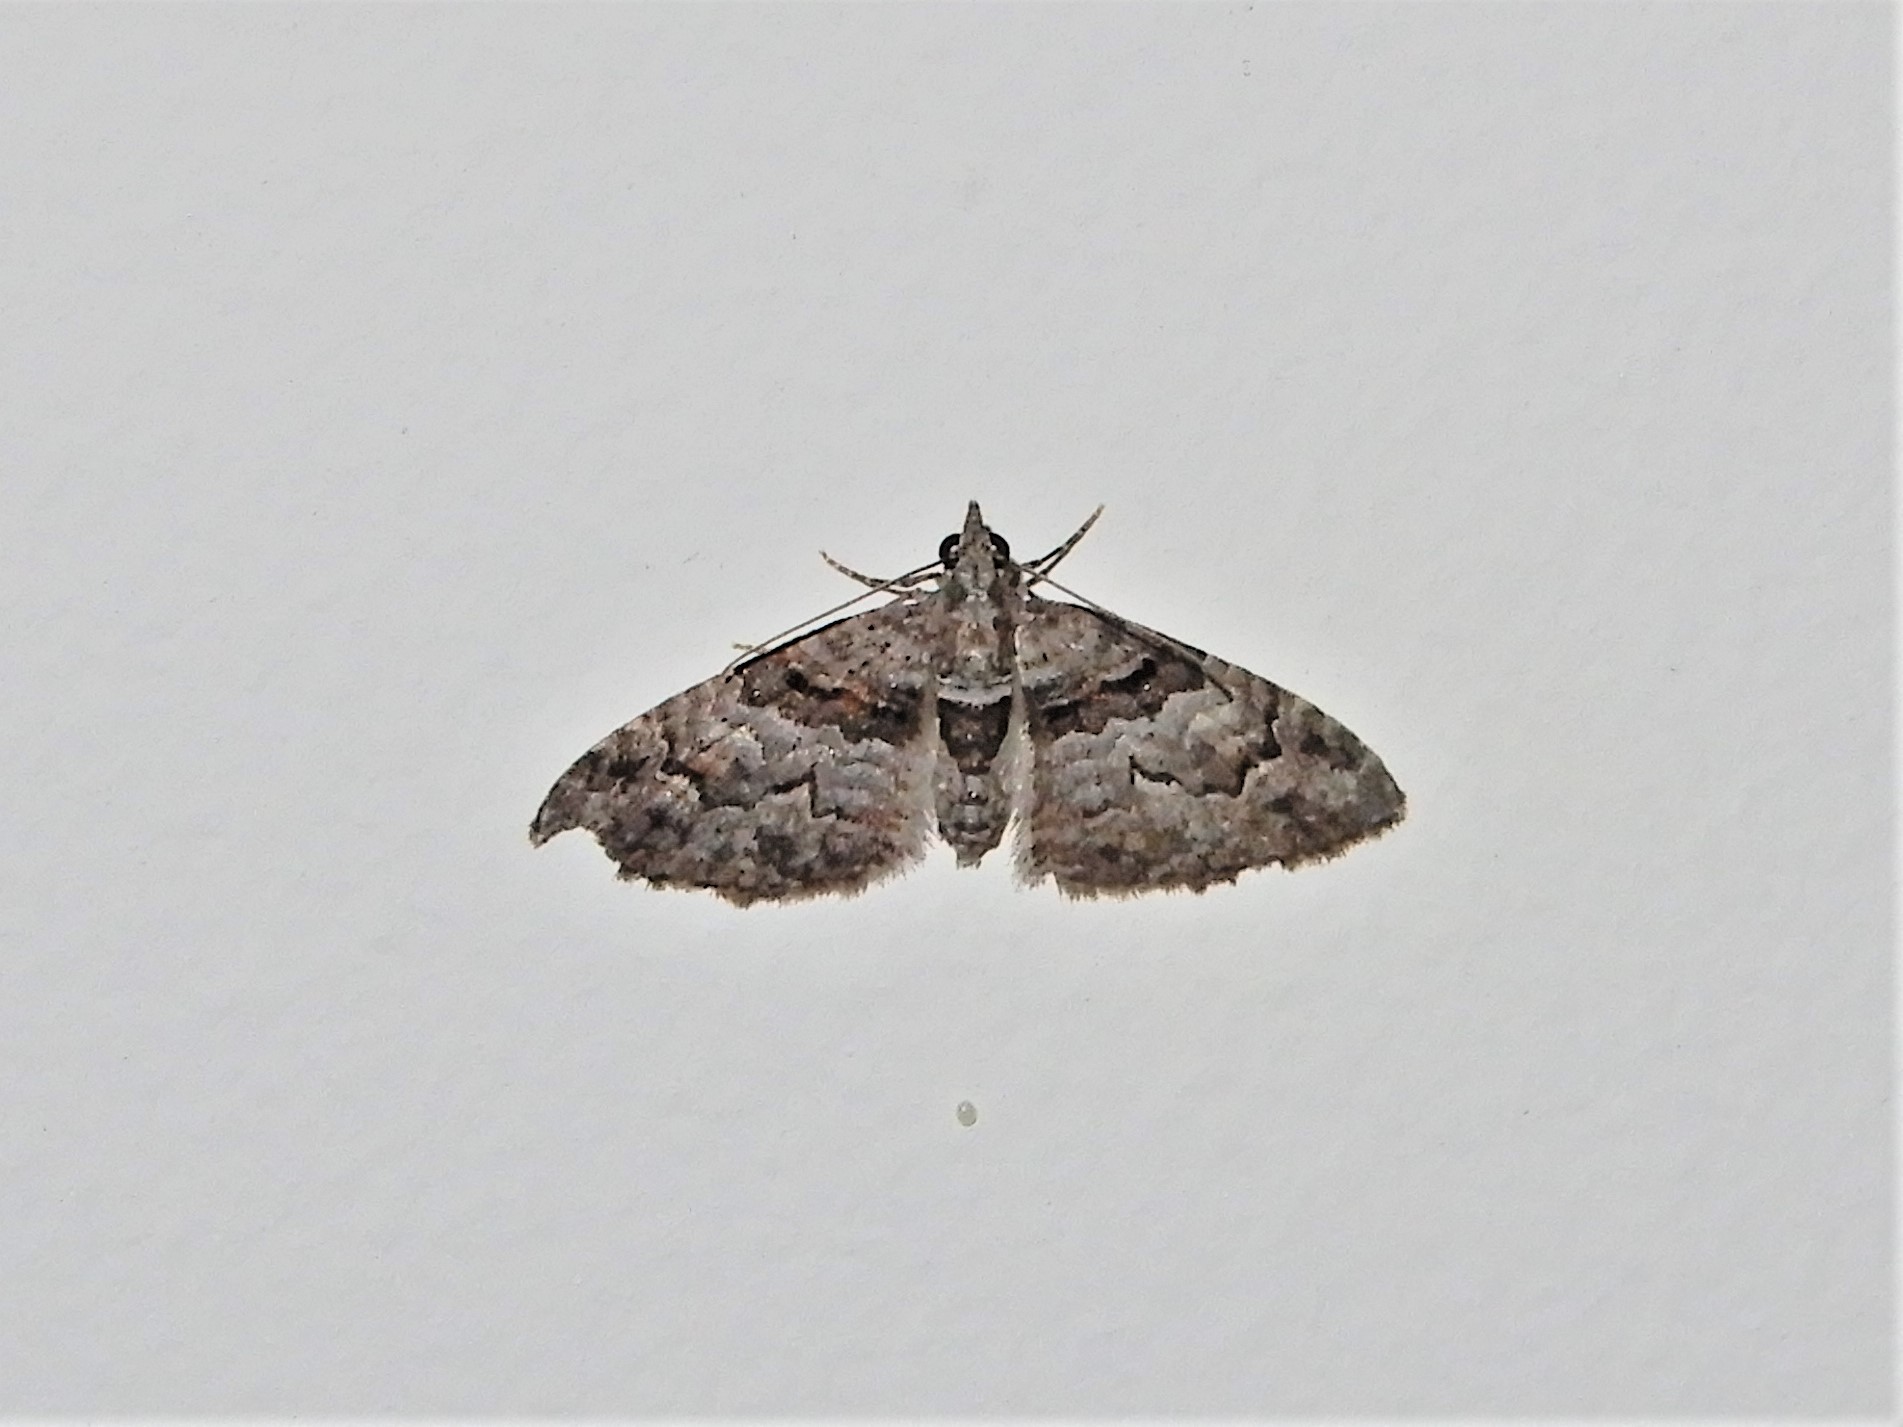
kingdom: Animalia
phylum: Arthropoda
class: Insecta
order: Lepidoptera
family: Geometridae
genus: Phrissogonus
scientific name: Phrissogonus laticostata
